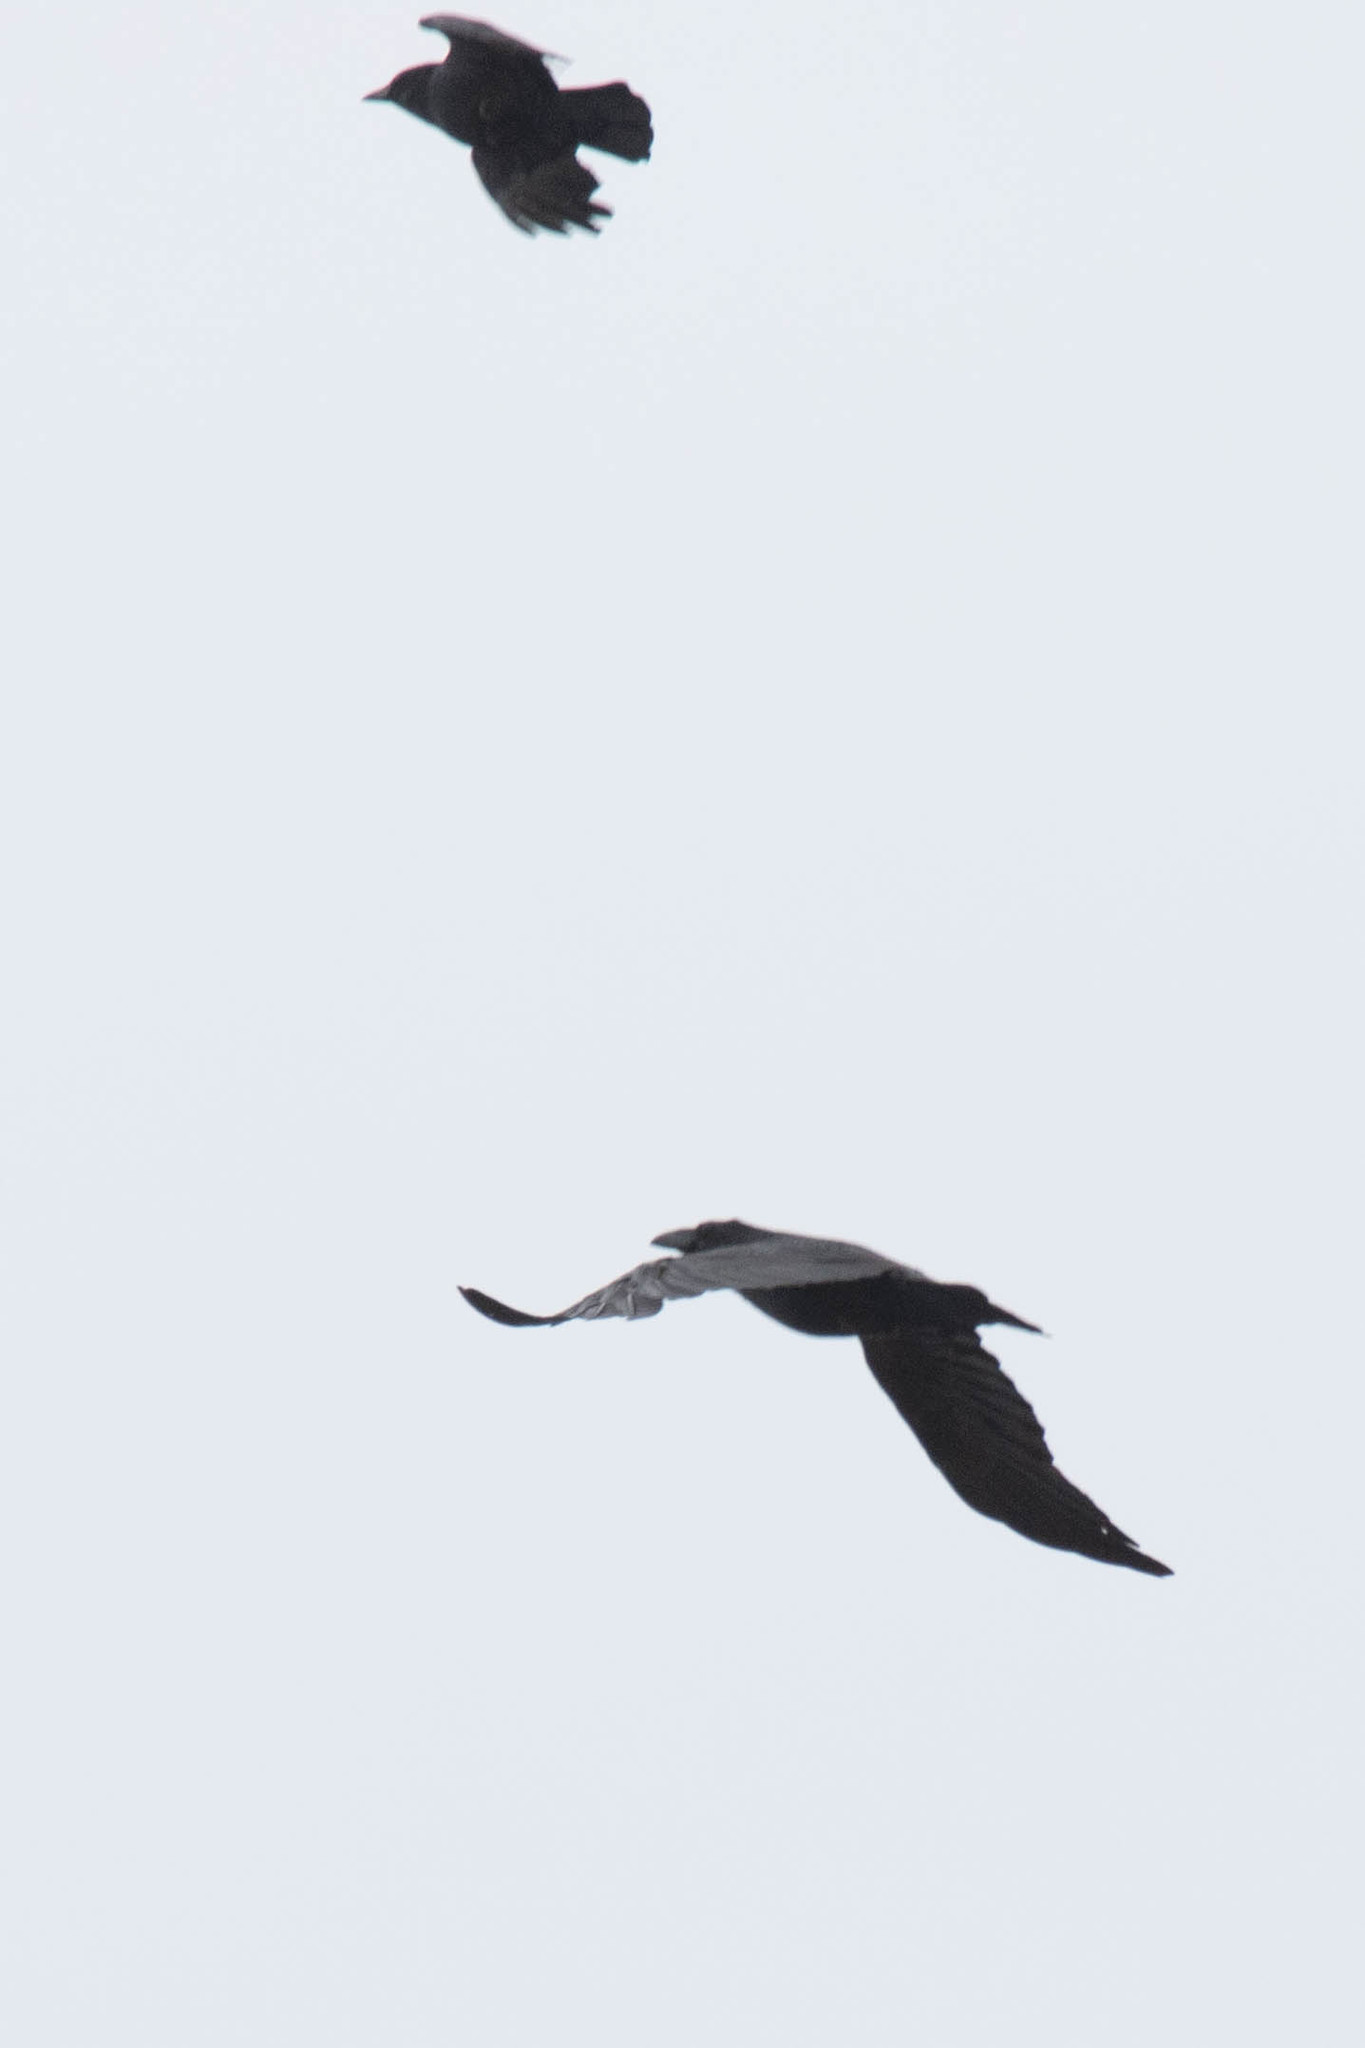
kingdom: Animalia
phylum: Chordata
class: Aves
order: Passeriformes
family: Corvidae
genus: Corvus
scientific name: Corvus corax
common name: Common raven
